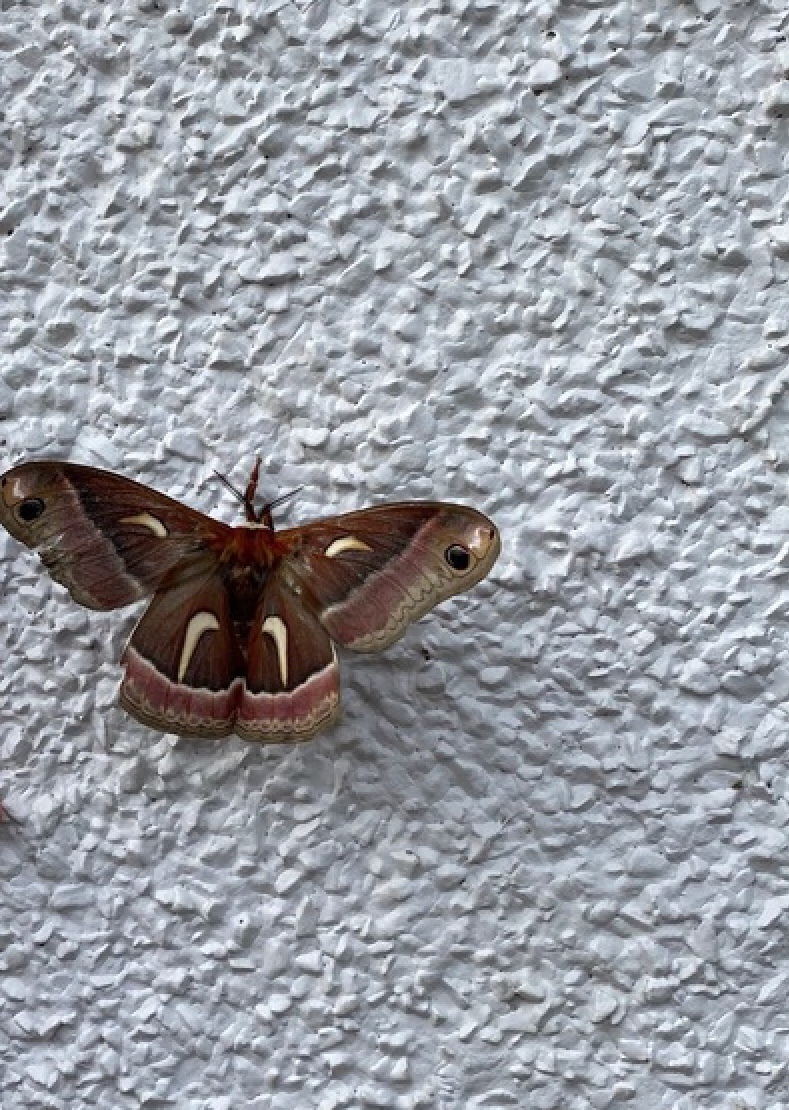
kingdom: Animalia
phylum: Arthropoda
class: Insecta
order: Lepidoptera
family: Saturniidae
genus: Hyalophora
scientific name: Hyalophora euryalus
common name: Ceanothus silkmoth
